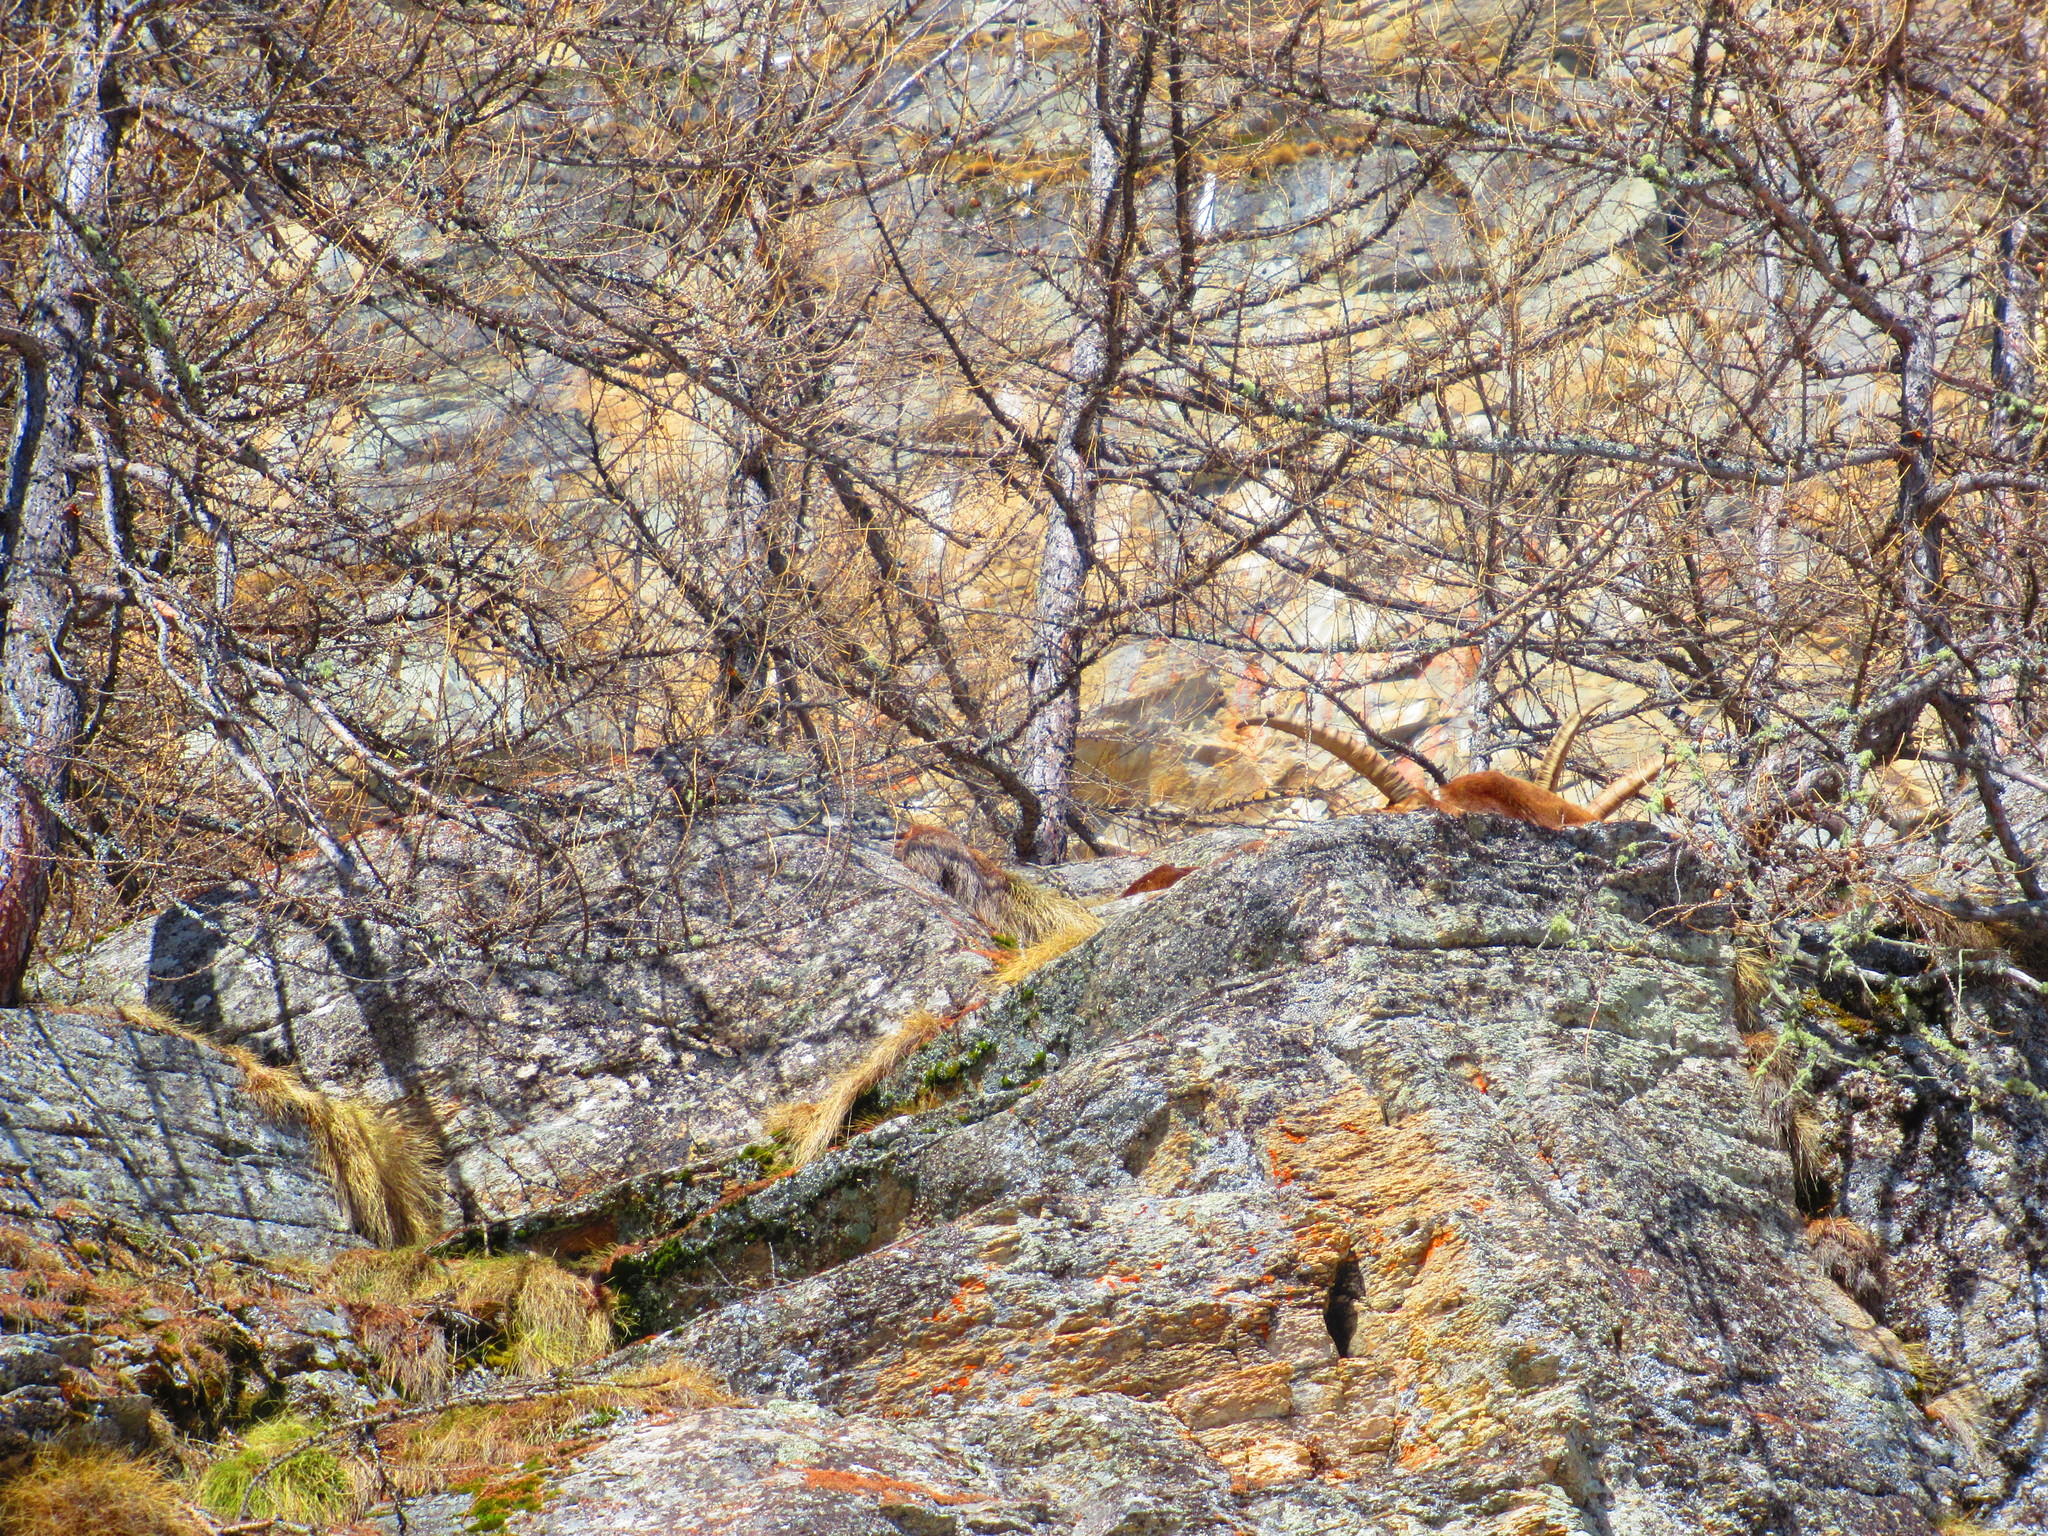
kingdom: Animalia
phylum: Chordata
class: Mammalia
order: Artiodactyla
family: Bovidae
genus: Capra
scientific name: Capra ibex
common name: Alpine ibex
